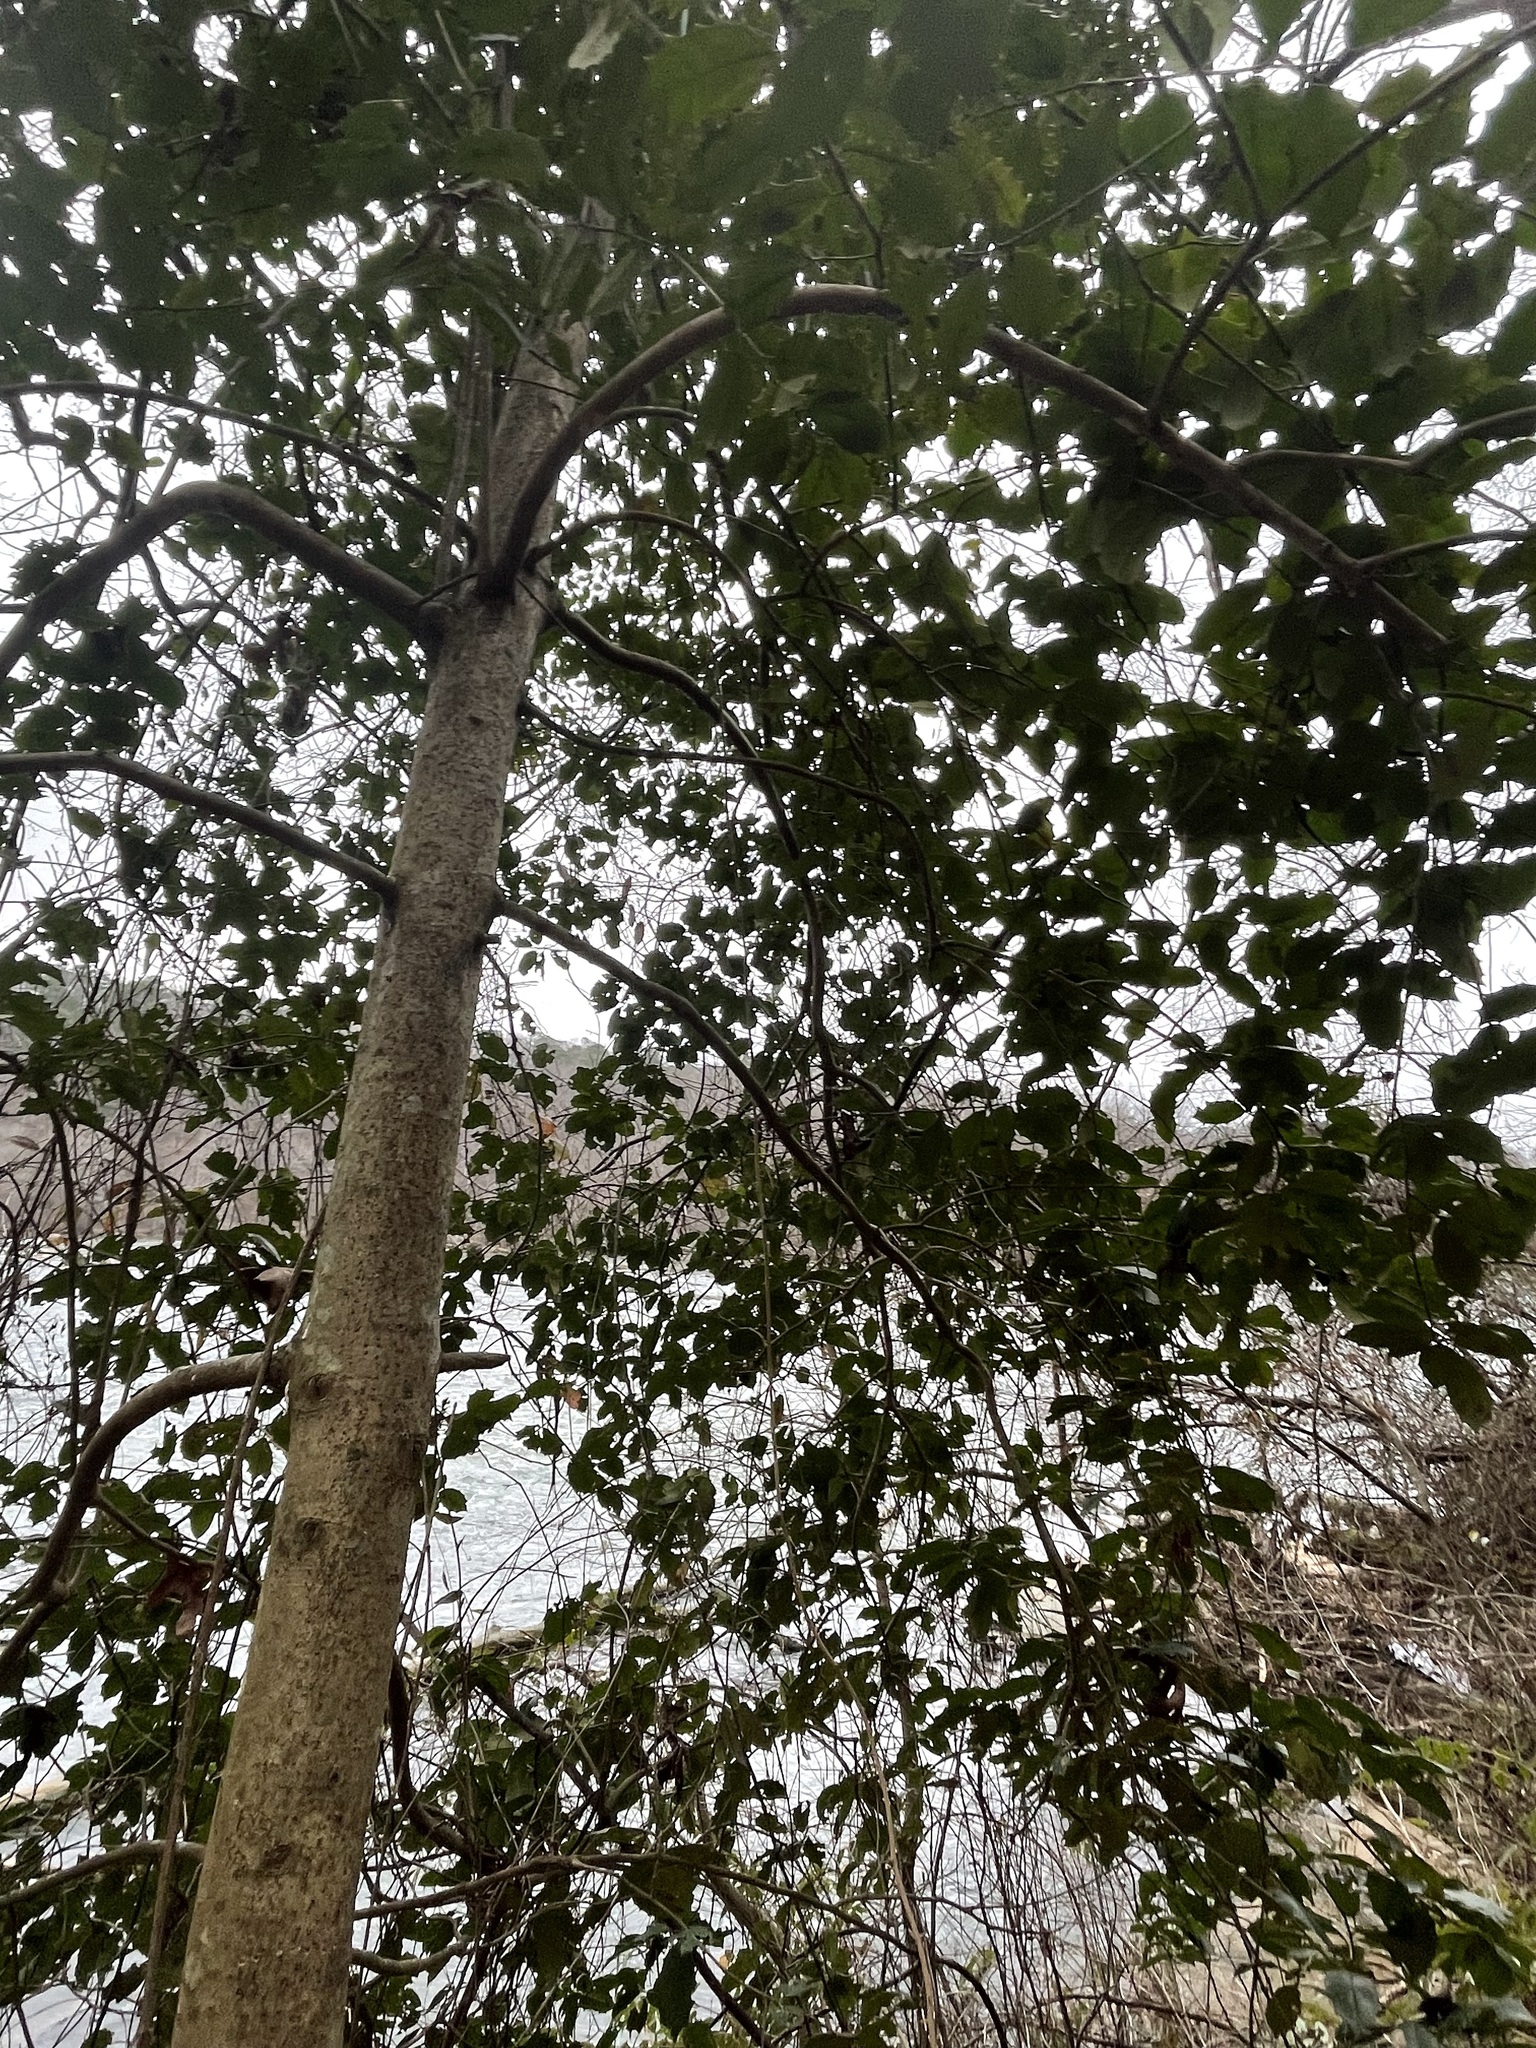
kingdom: Plantae
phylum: Tracheophyta
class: Magnoliopsida
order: Aquifoliales
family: Aquifoliaceae
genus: Ilex
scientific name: Ilex opaca
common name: American holly
